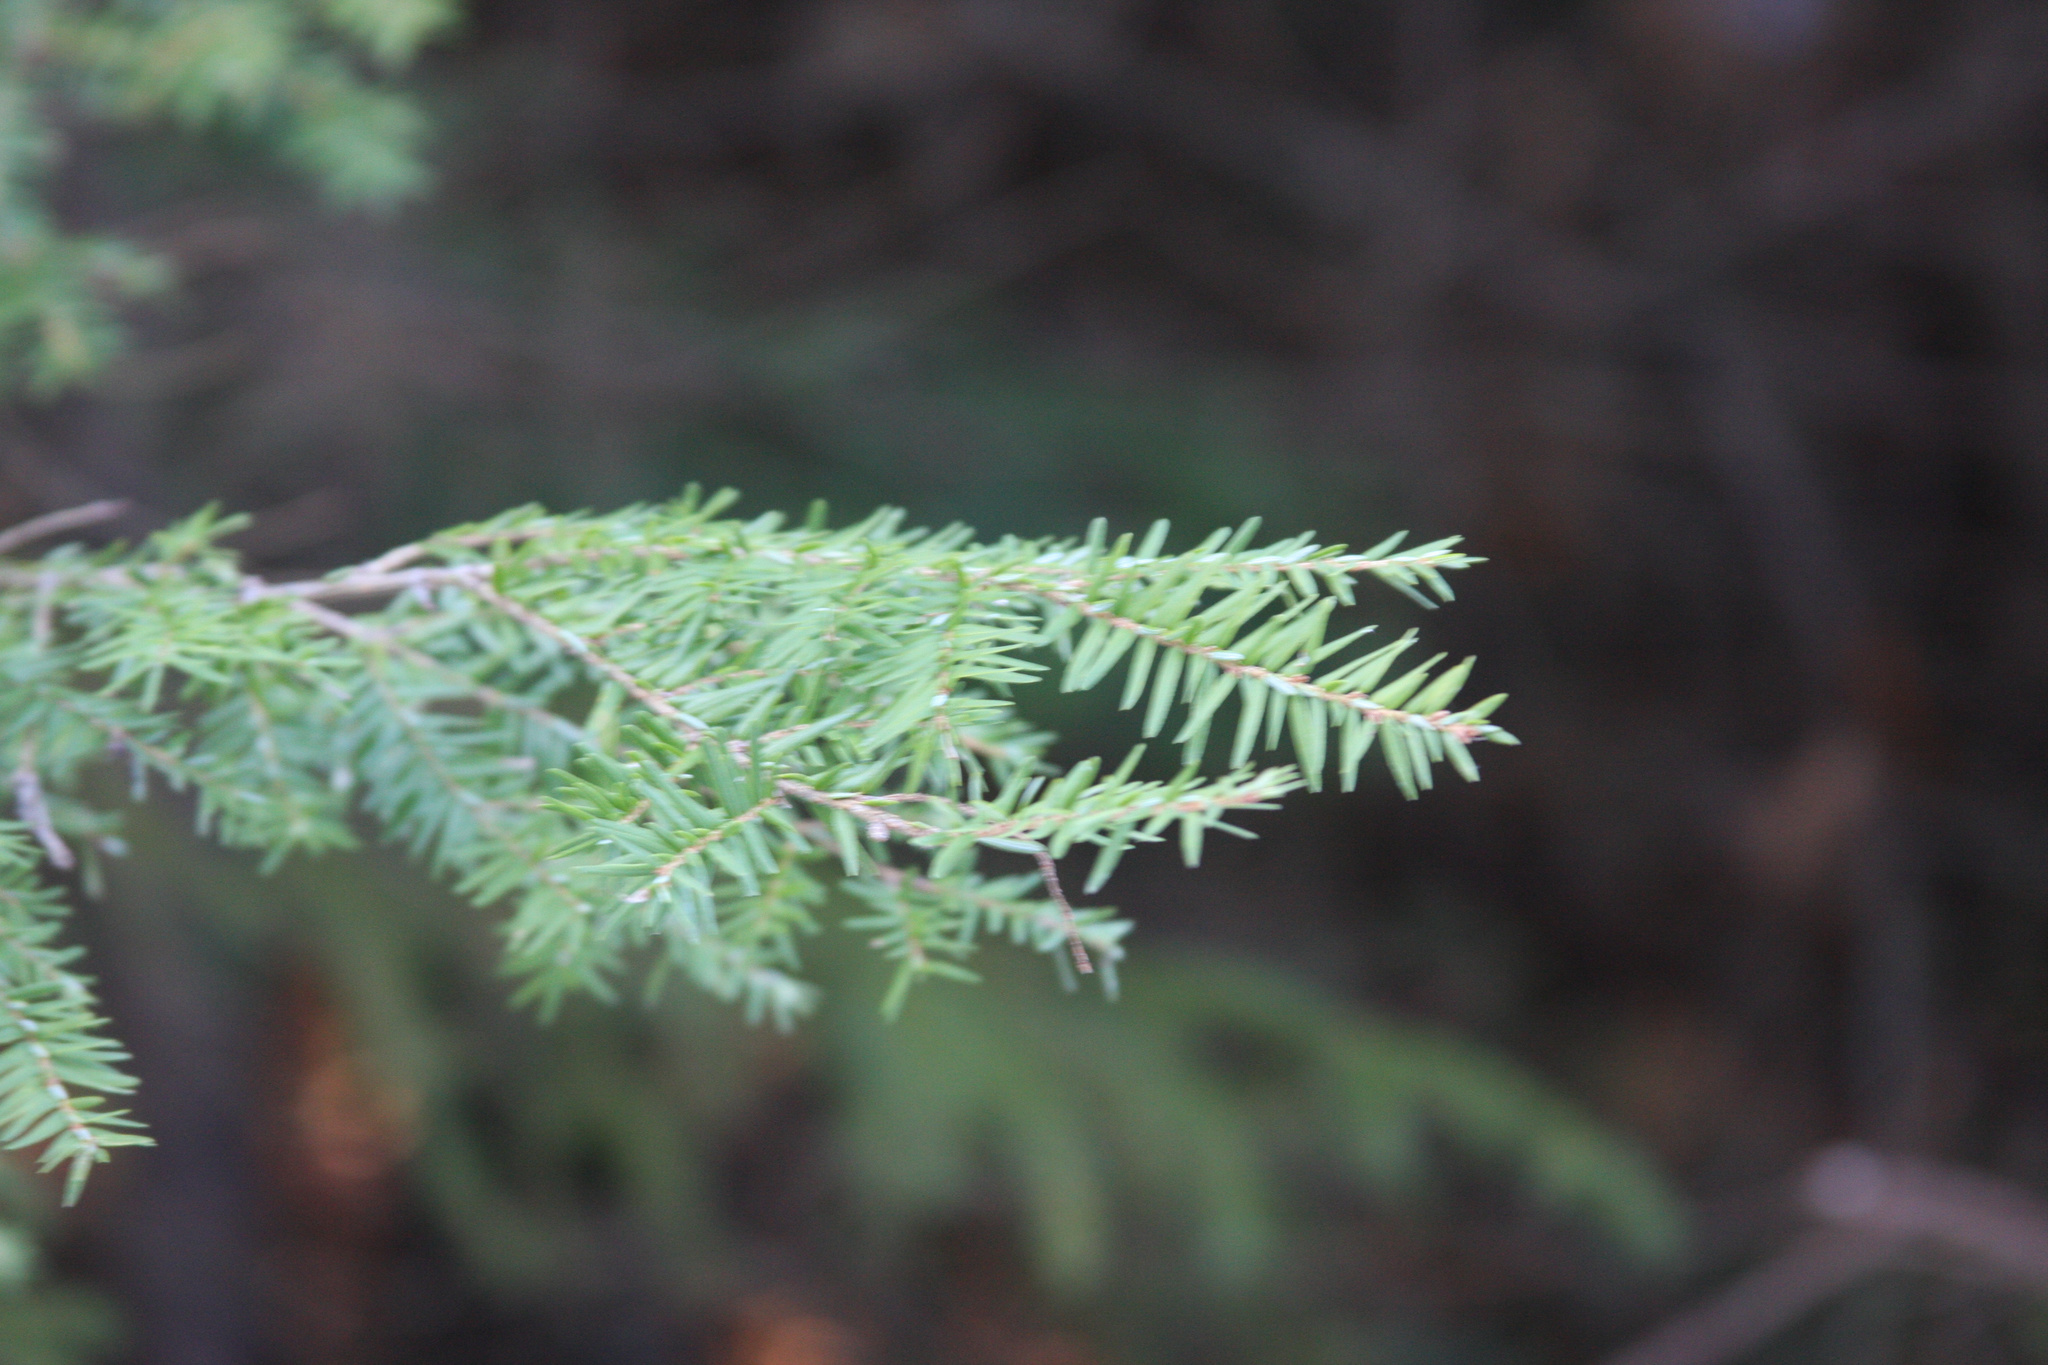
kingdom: Plantae
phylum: Tracheophyta
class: Pinopsida
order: Pinales
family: Pinaceae
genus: Tsuga
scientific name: Tsuga canadensis
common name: Eastern hemlock
